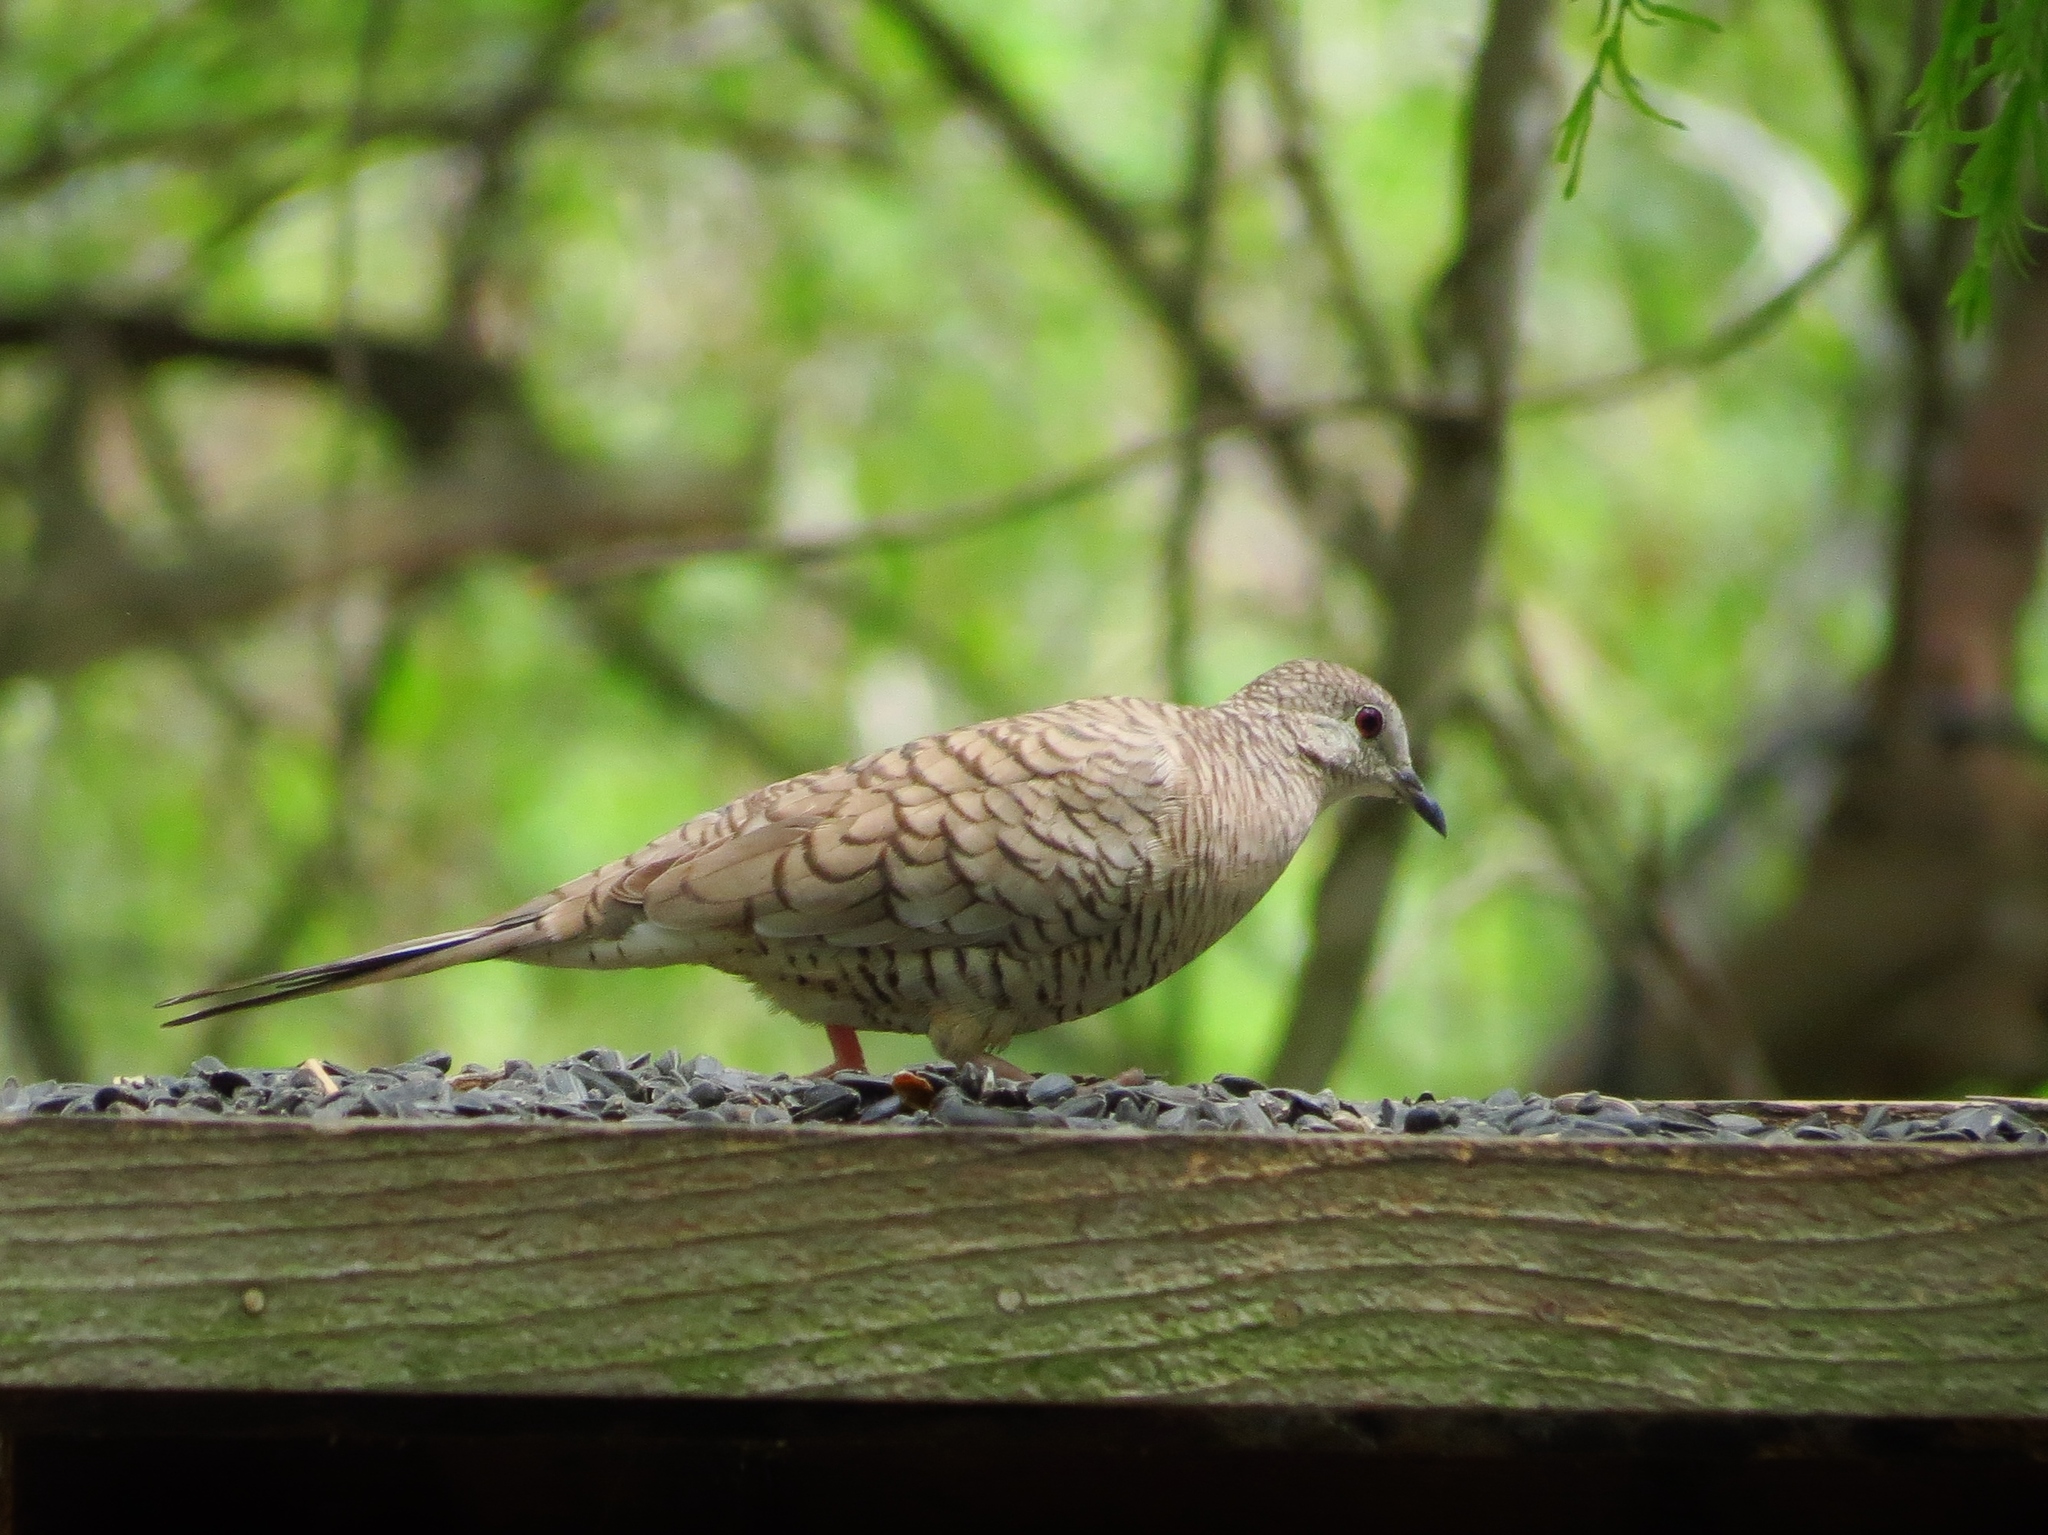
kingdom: Animalia
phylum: Chordata
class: Aves
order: Columbiformes
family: Columbidae
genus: Columbina
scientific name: Columbina inca
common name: Inca dove
